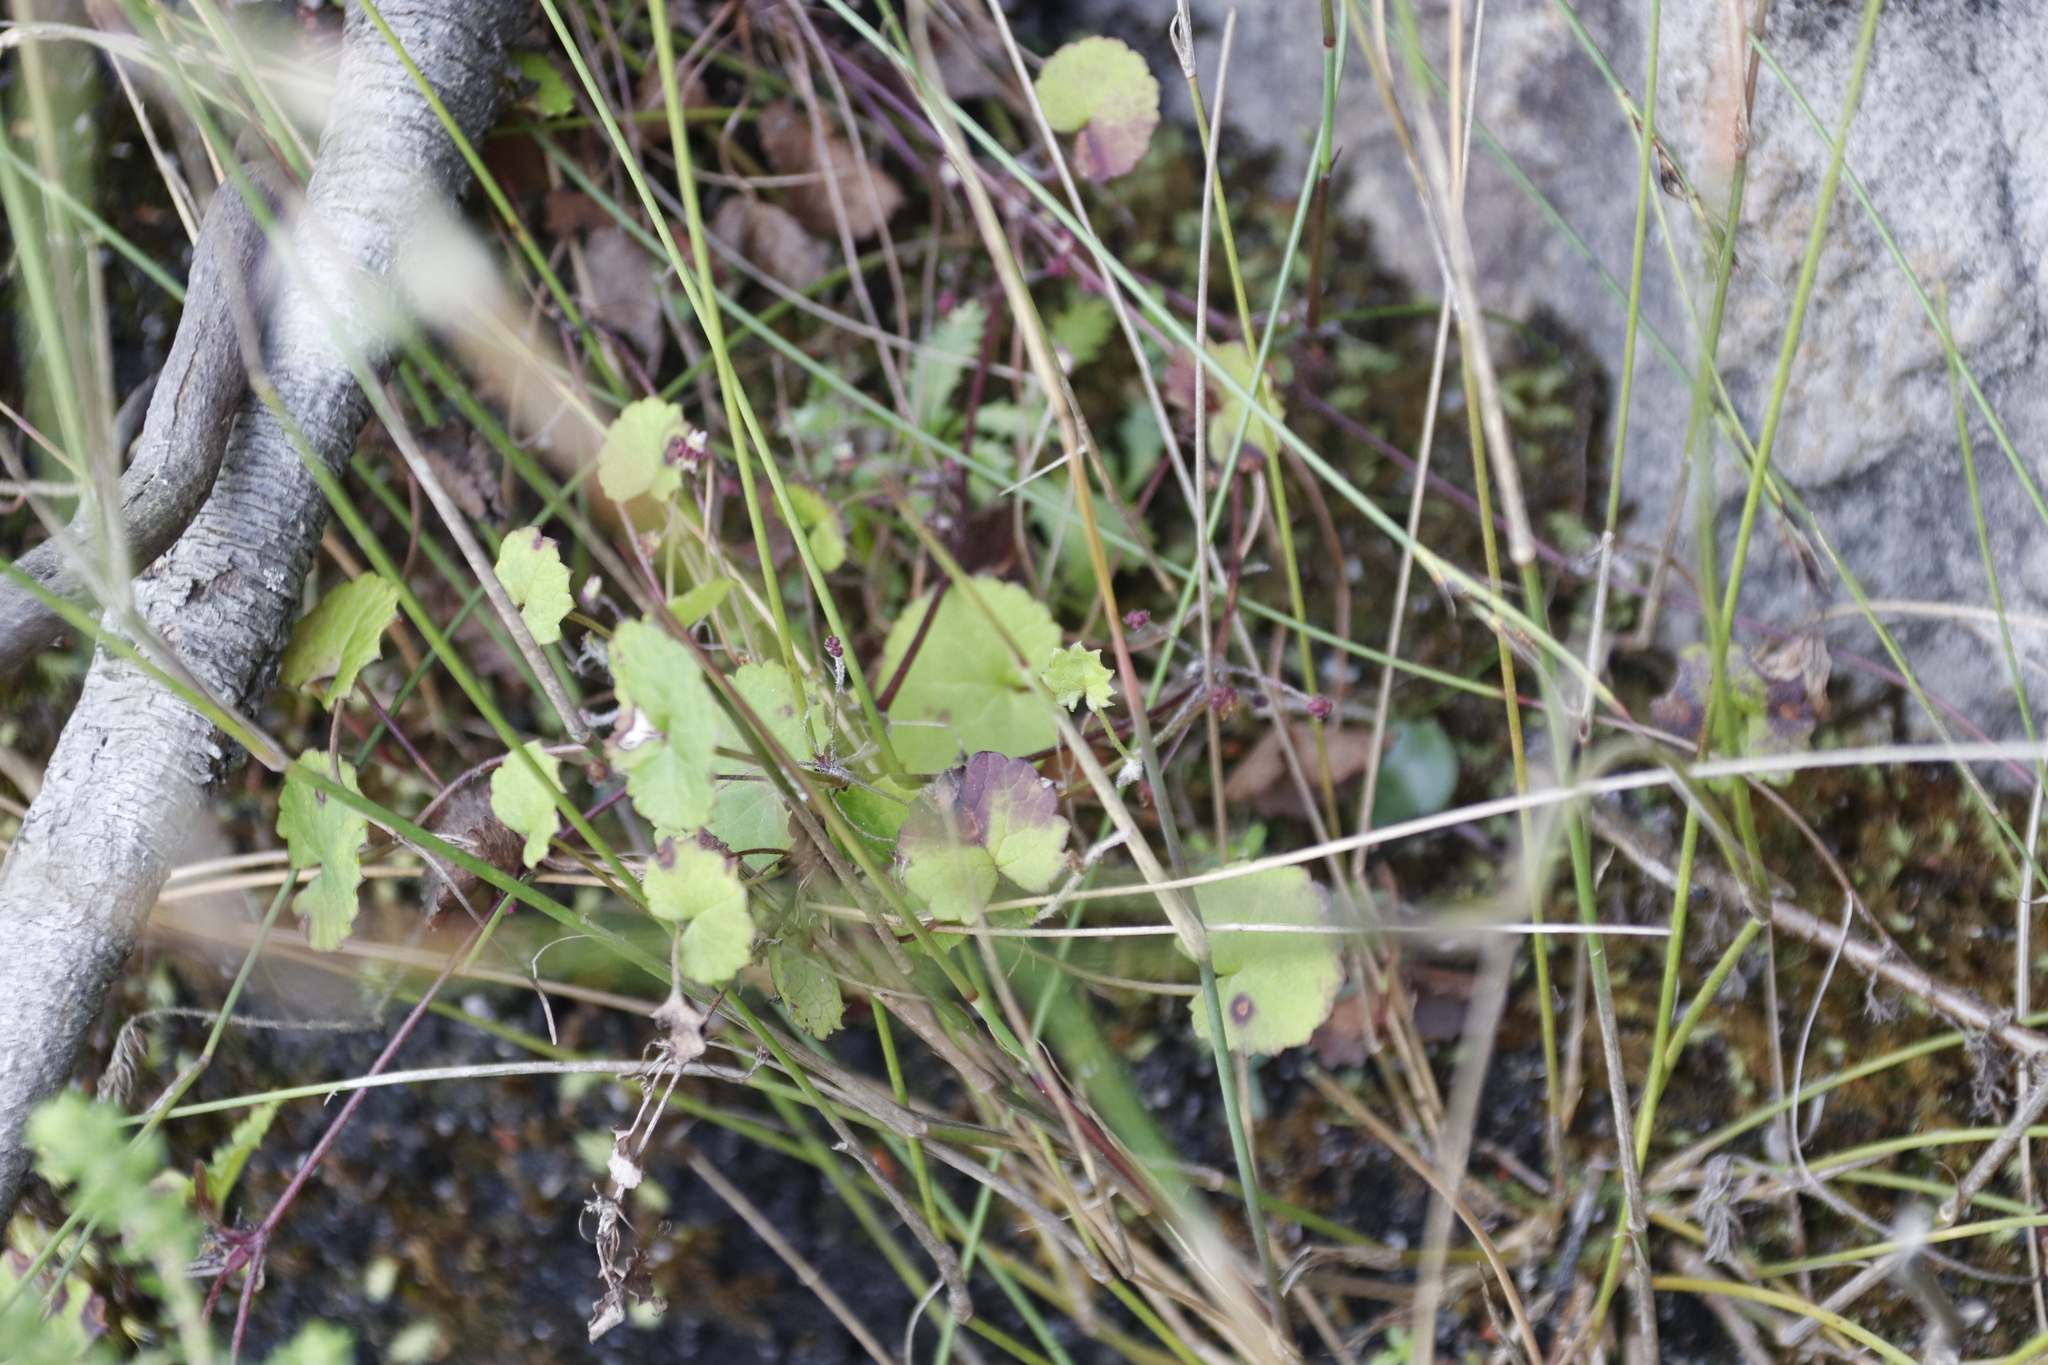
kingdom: Plantae
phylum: Tracheophyta
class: Magnoliopsida
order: Apiales
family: Apiaceae
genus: Centella
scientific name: Centella eriantha
